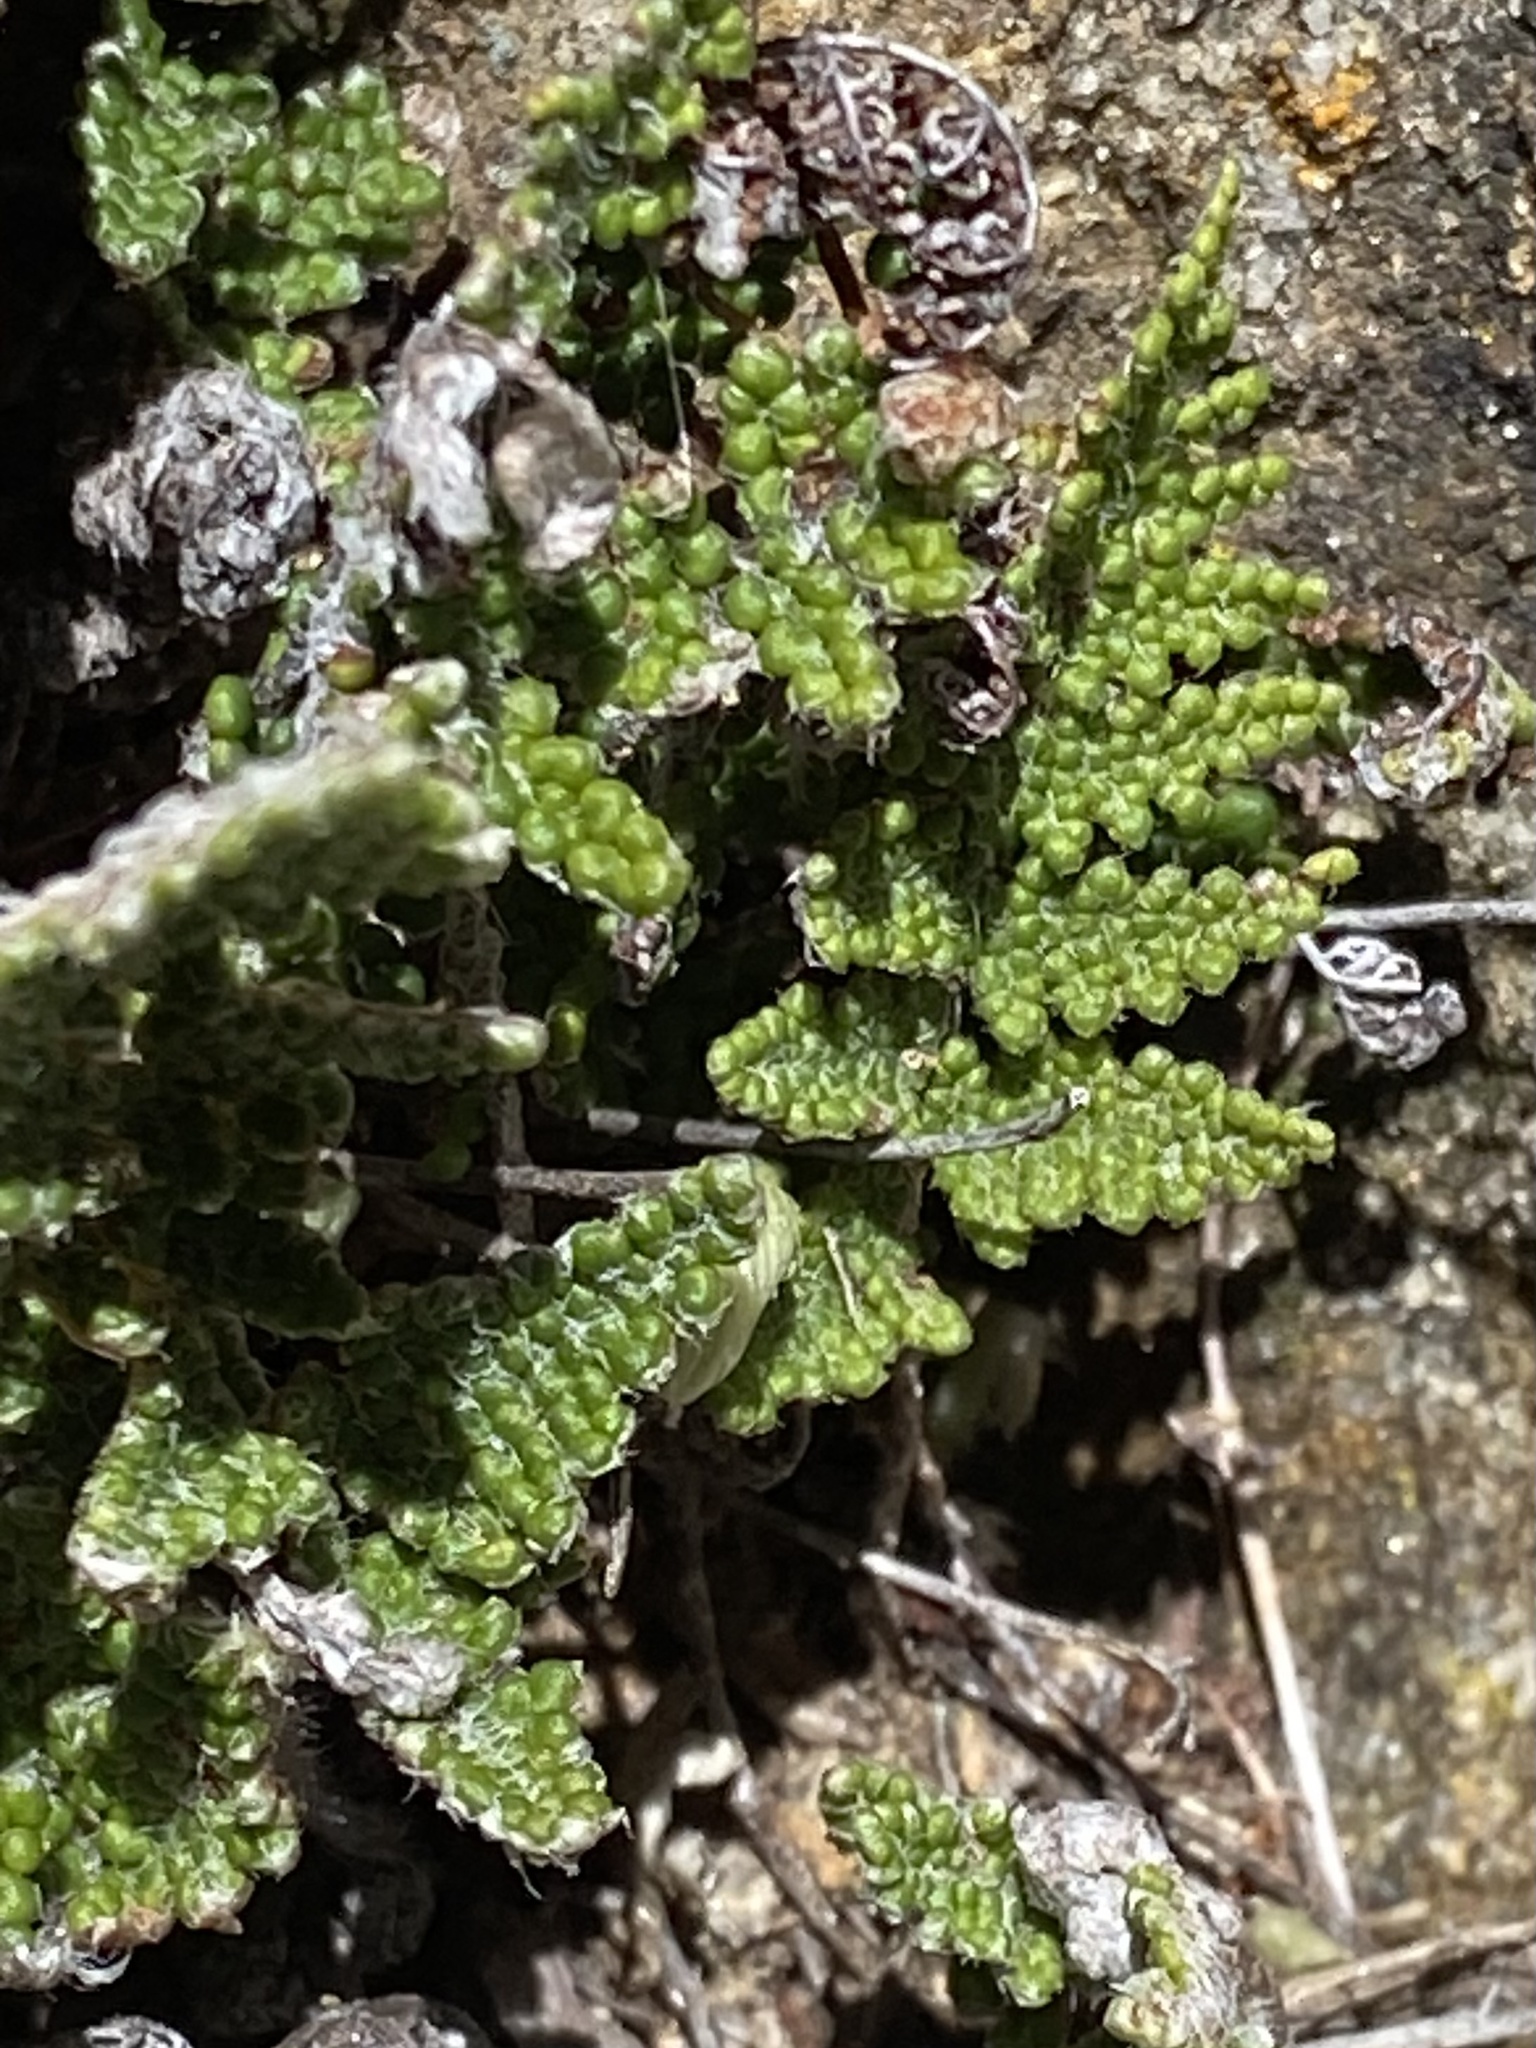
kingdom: Plantae
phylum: Tracheophyta
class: Polypodiopsida
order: Polypodiales
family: Pteridaceae
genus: Myriopteris
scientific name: Myriopteris covillei
